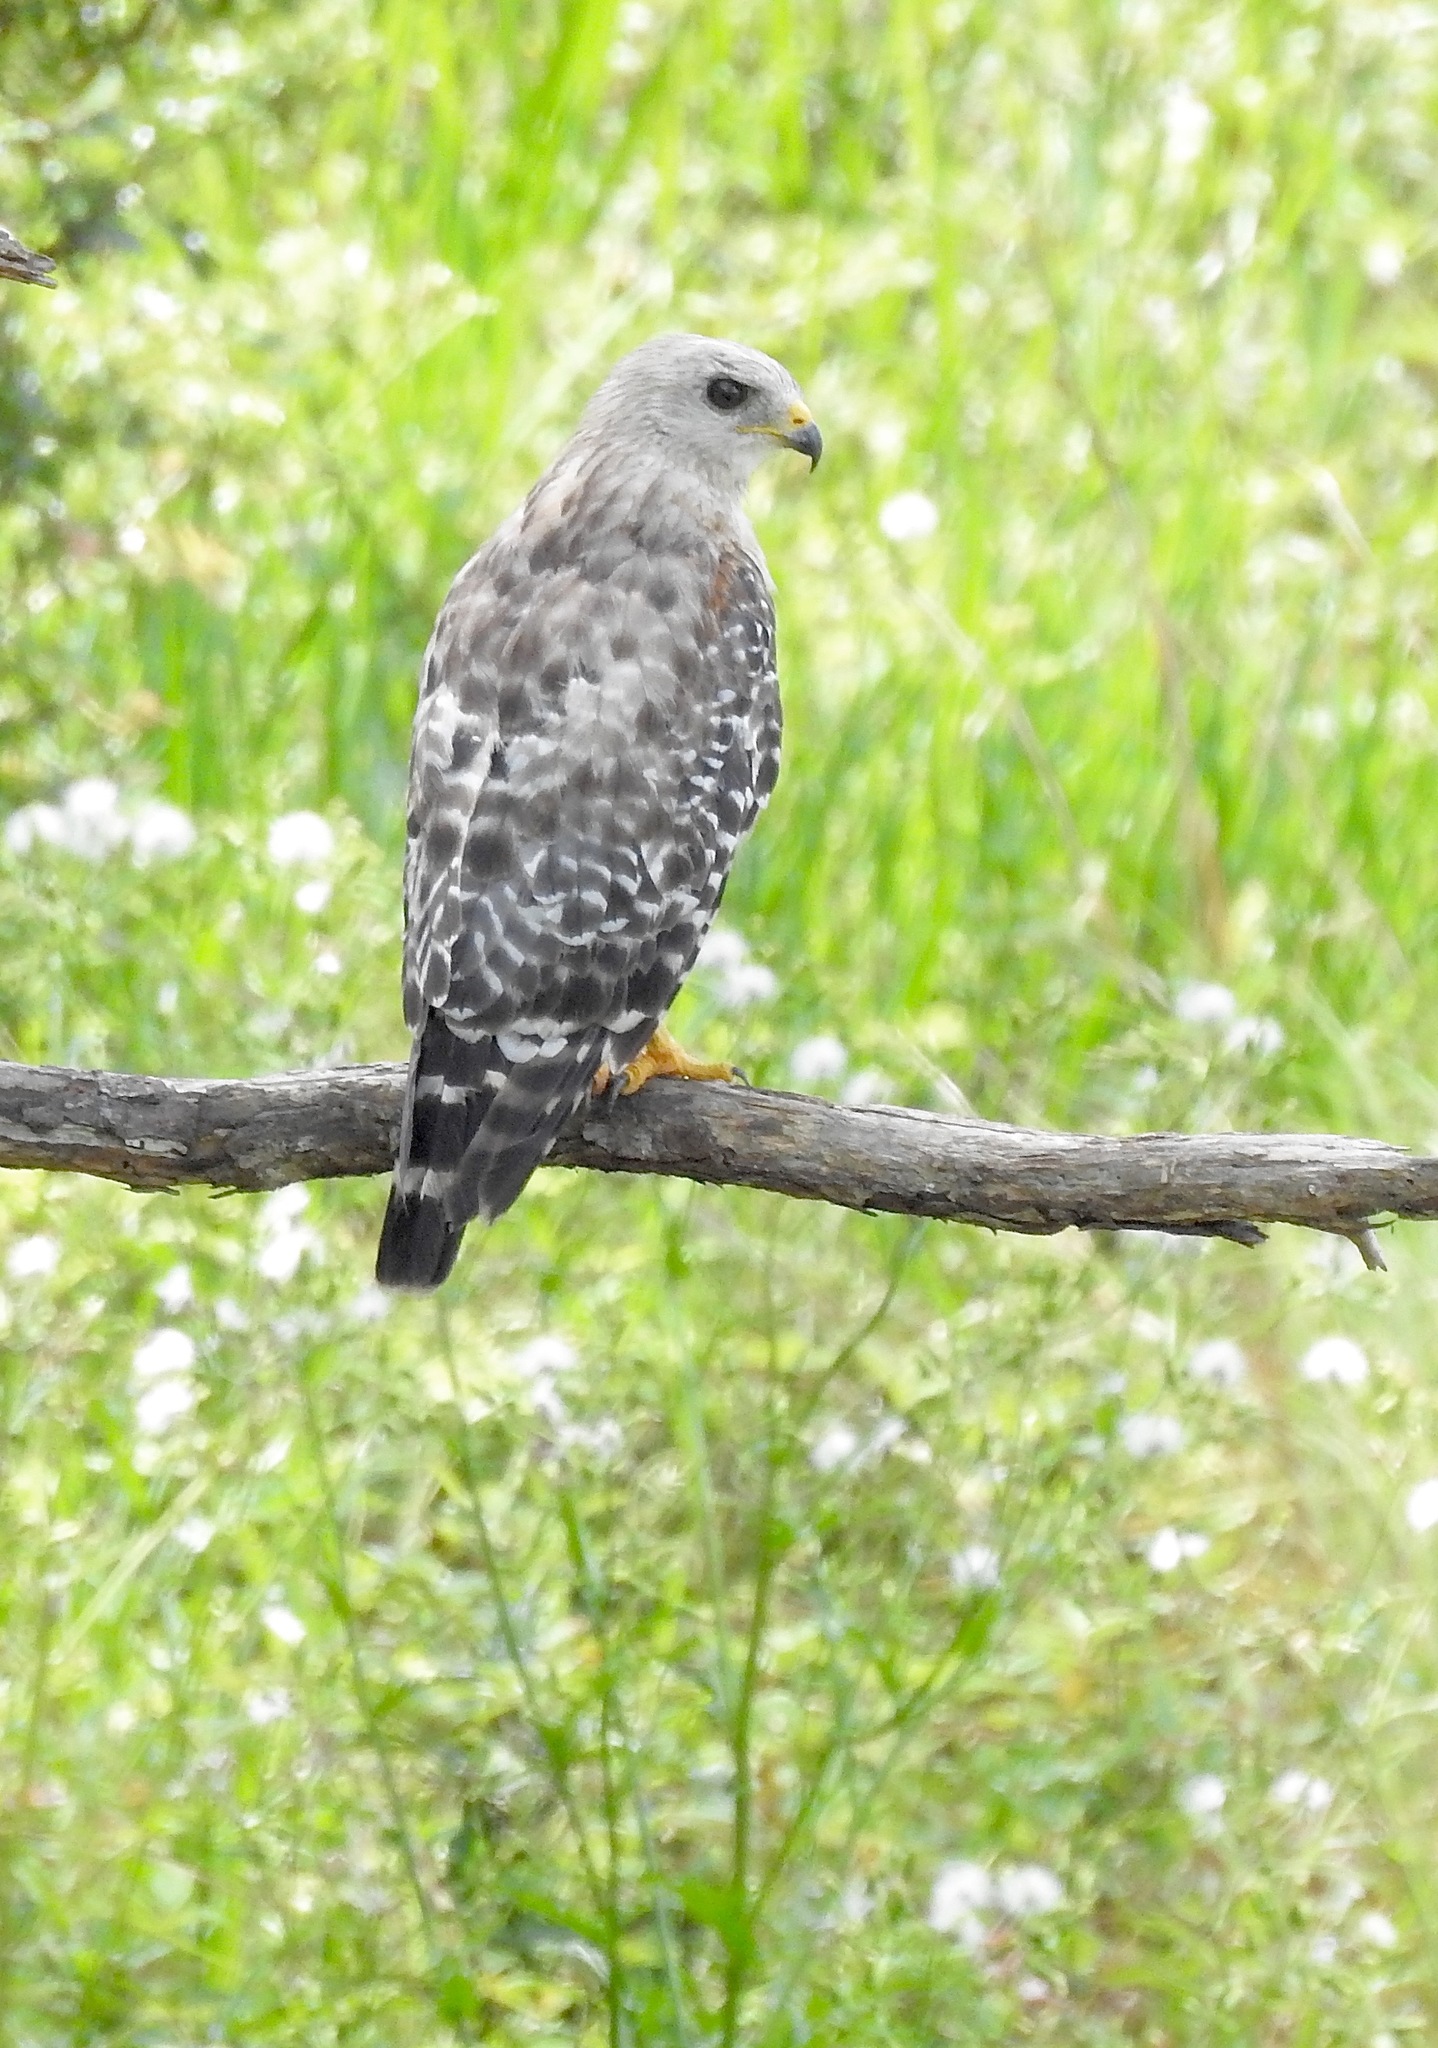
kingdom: Animalia
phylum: Chordata
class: Aves
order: Accipitriformes
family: Accipitridae
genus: Buteo
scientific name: Buteo lineatus
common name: Red-shouldered hawk
